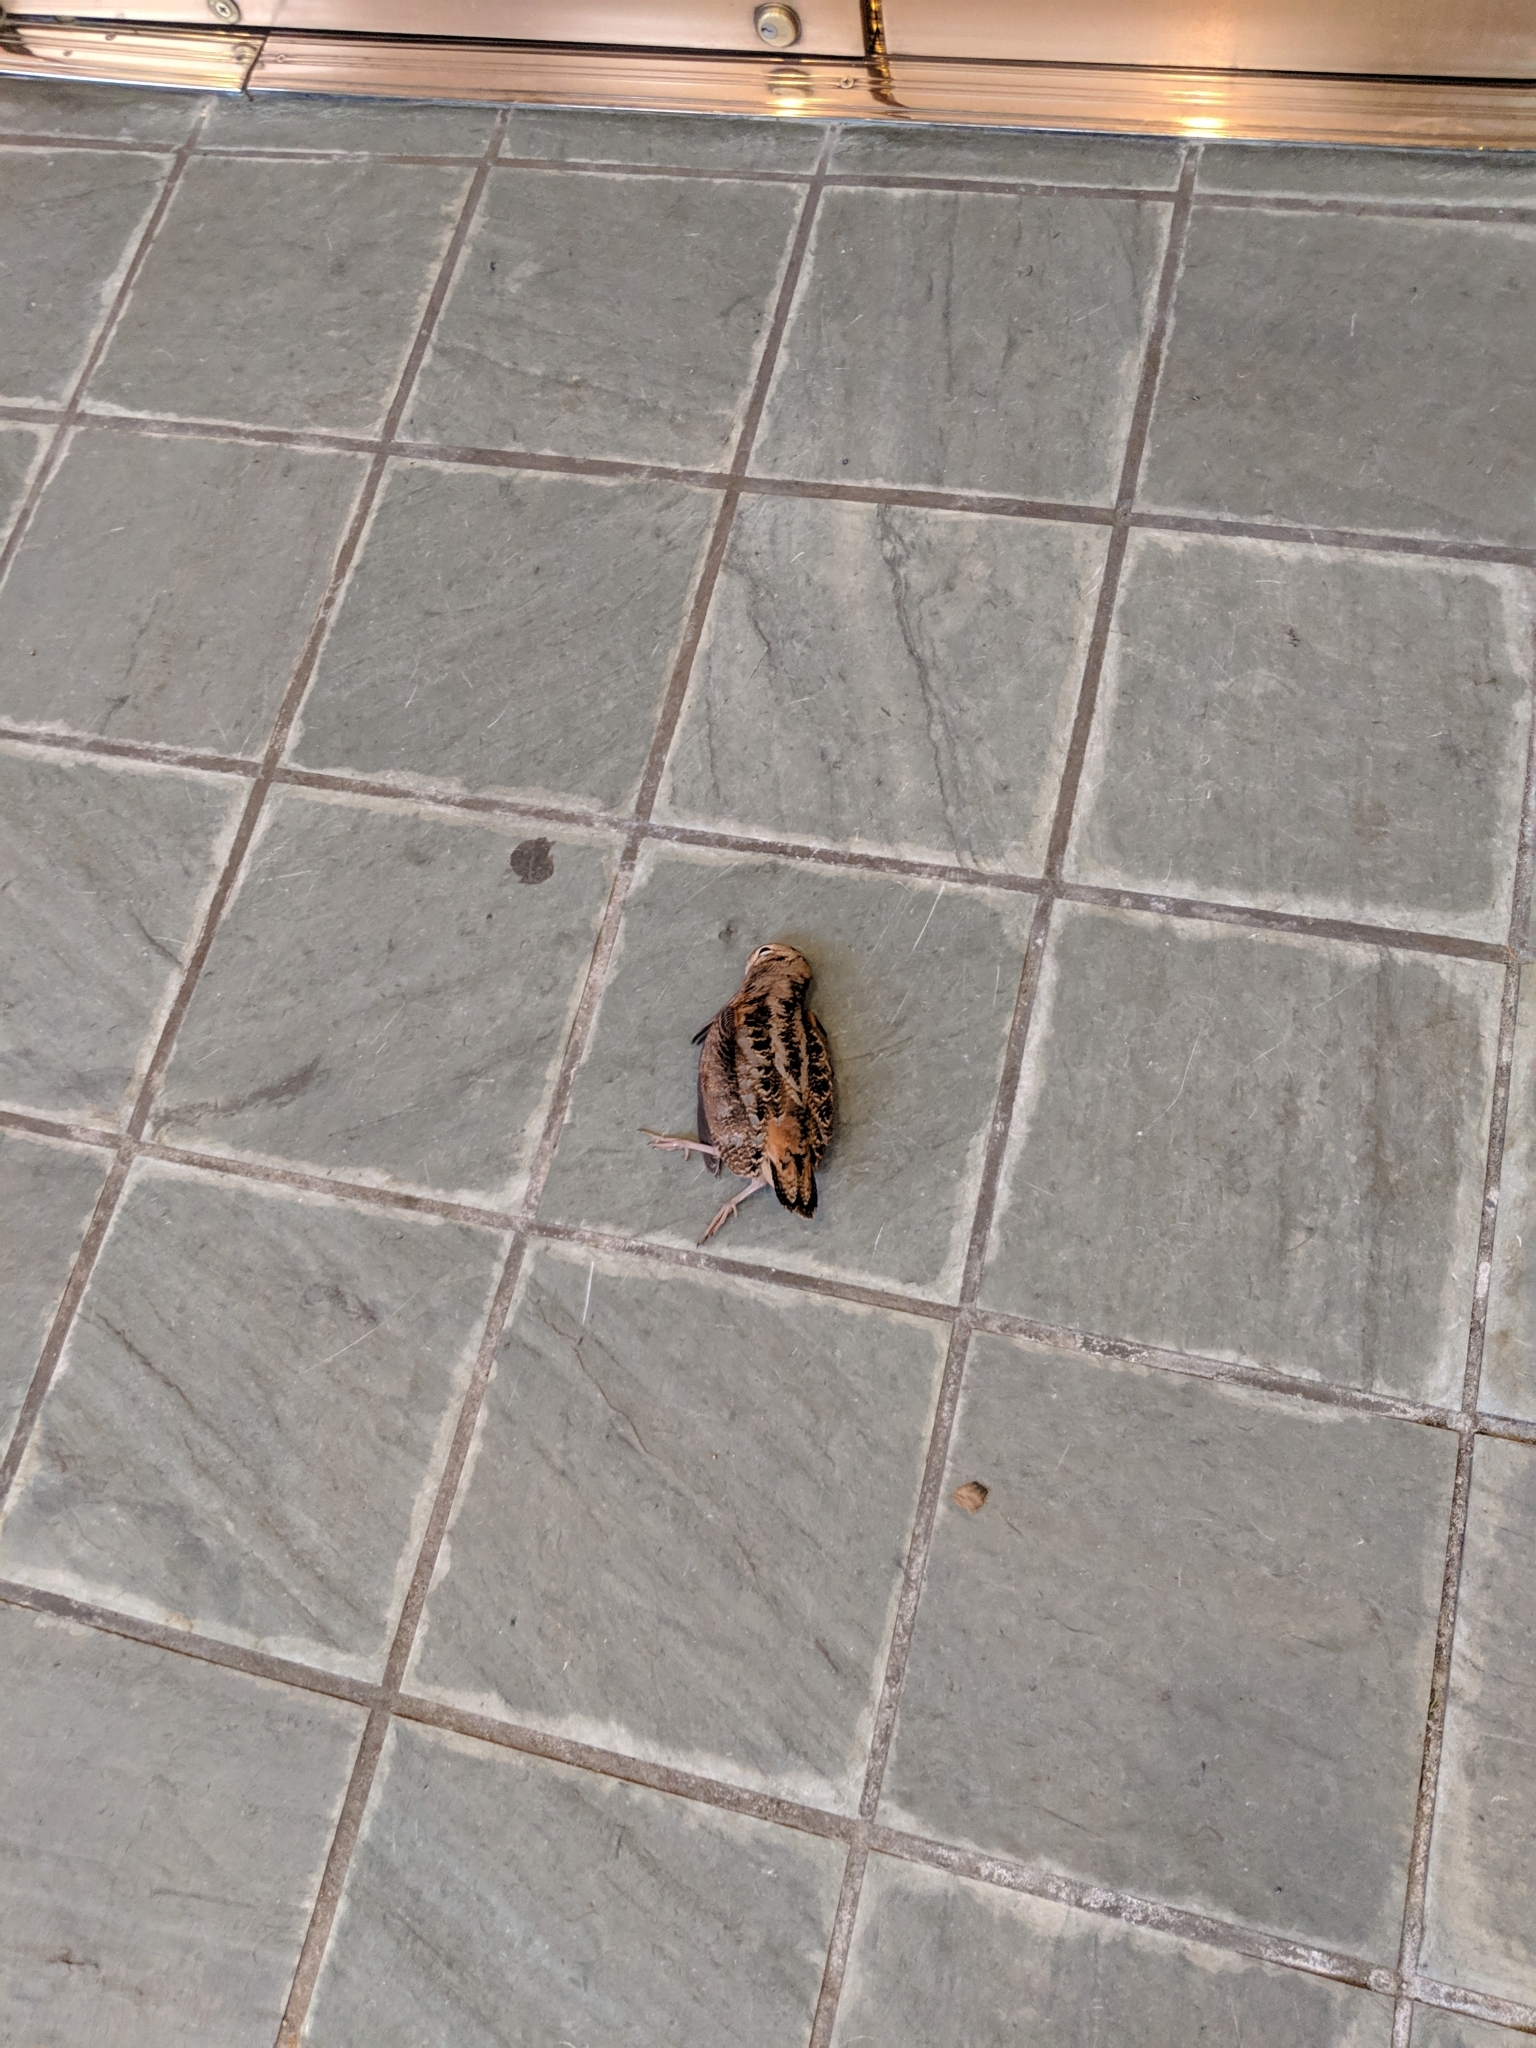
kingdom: Animalia
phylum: Chordata
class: Aves
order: Charadriiformes
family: Scolopacidae
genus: Scolopax
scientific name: Scolopax minor
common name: American woodcock
